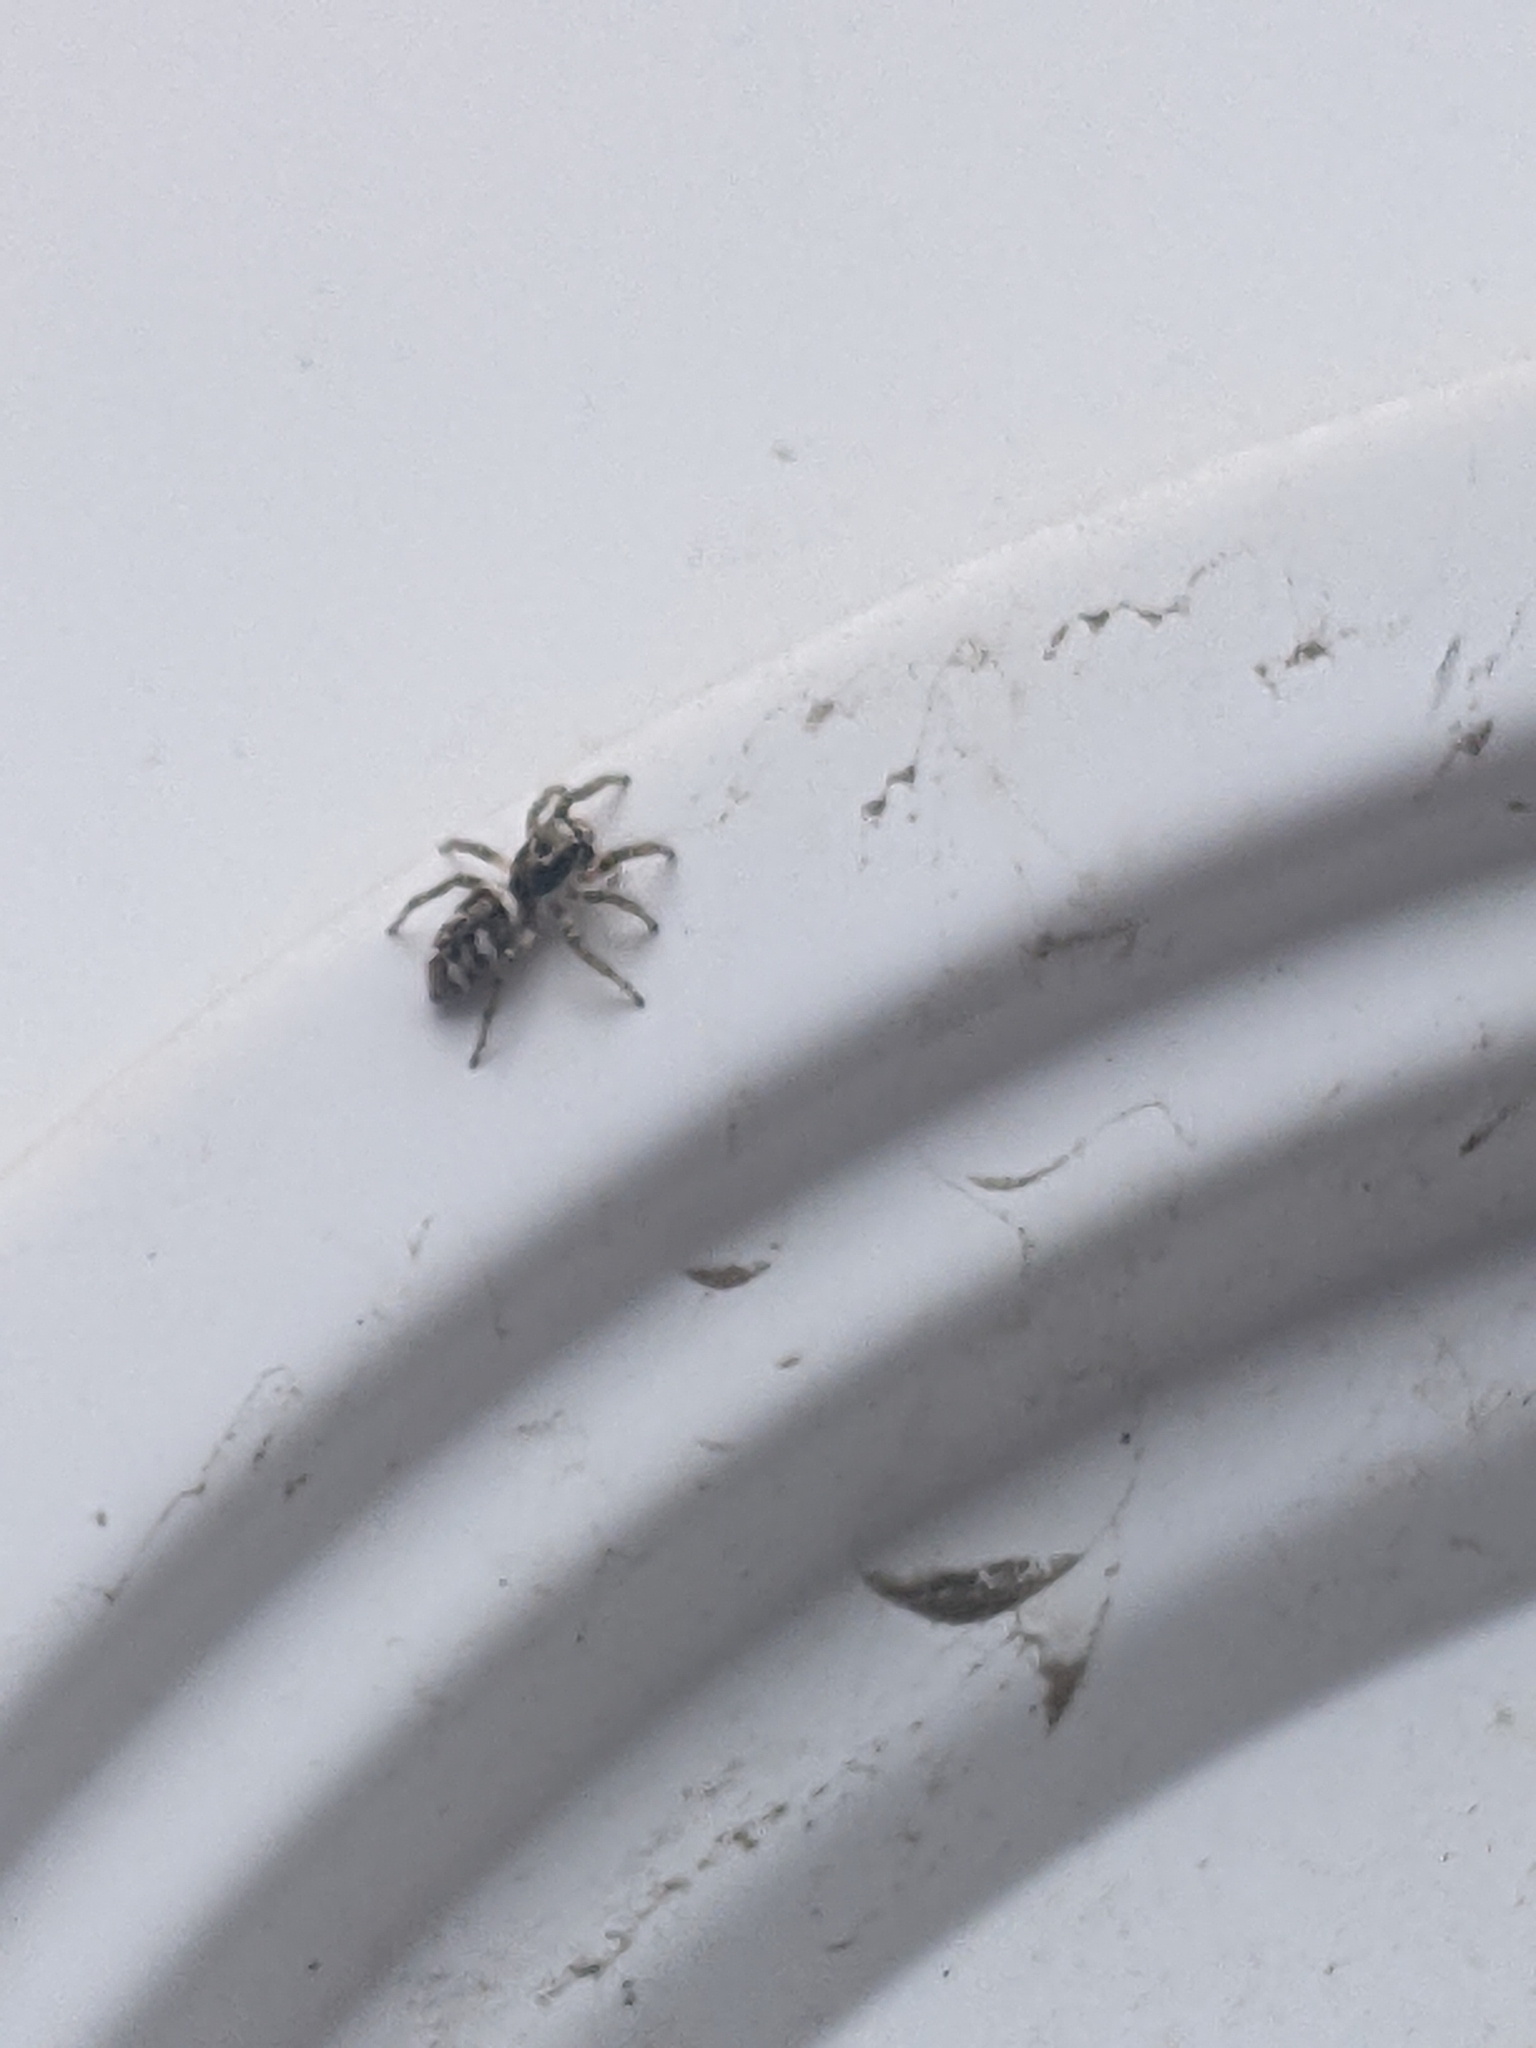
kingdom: Animalia
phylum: Arthropoda
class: Arachnida
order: Araneae
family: Salticidae
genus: Salticus
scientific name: Salticus scenicus
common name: Zebra jumper
